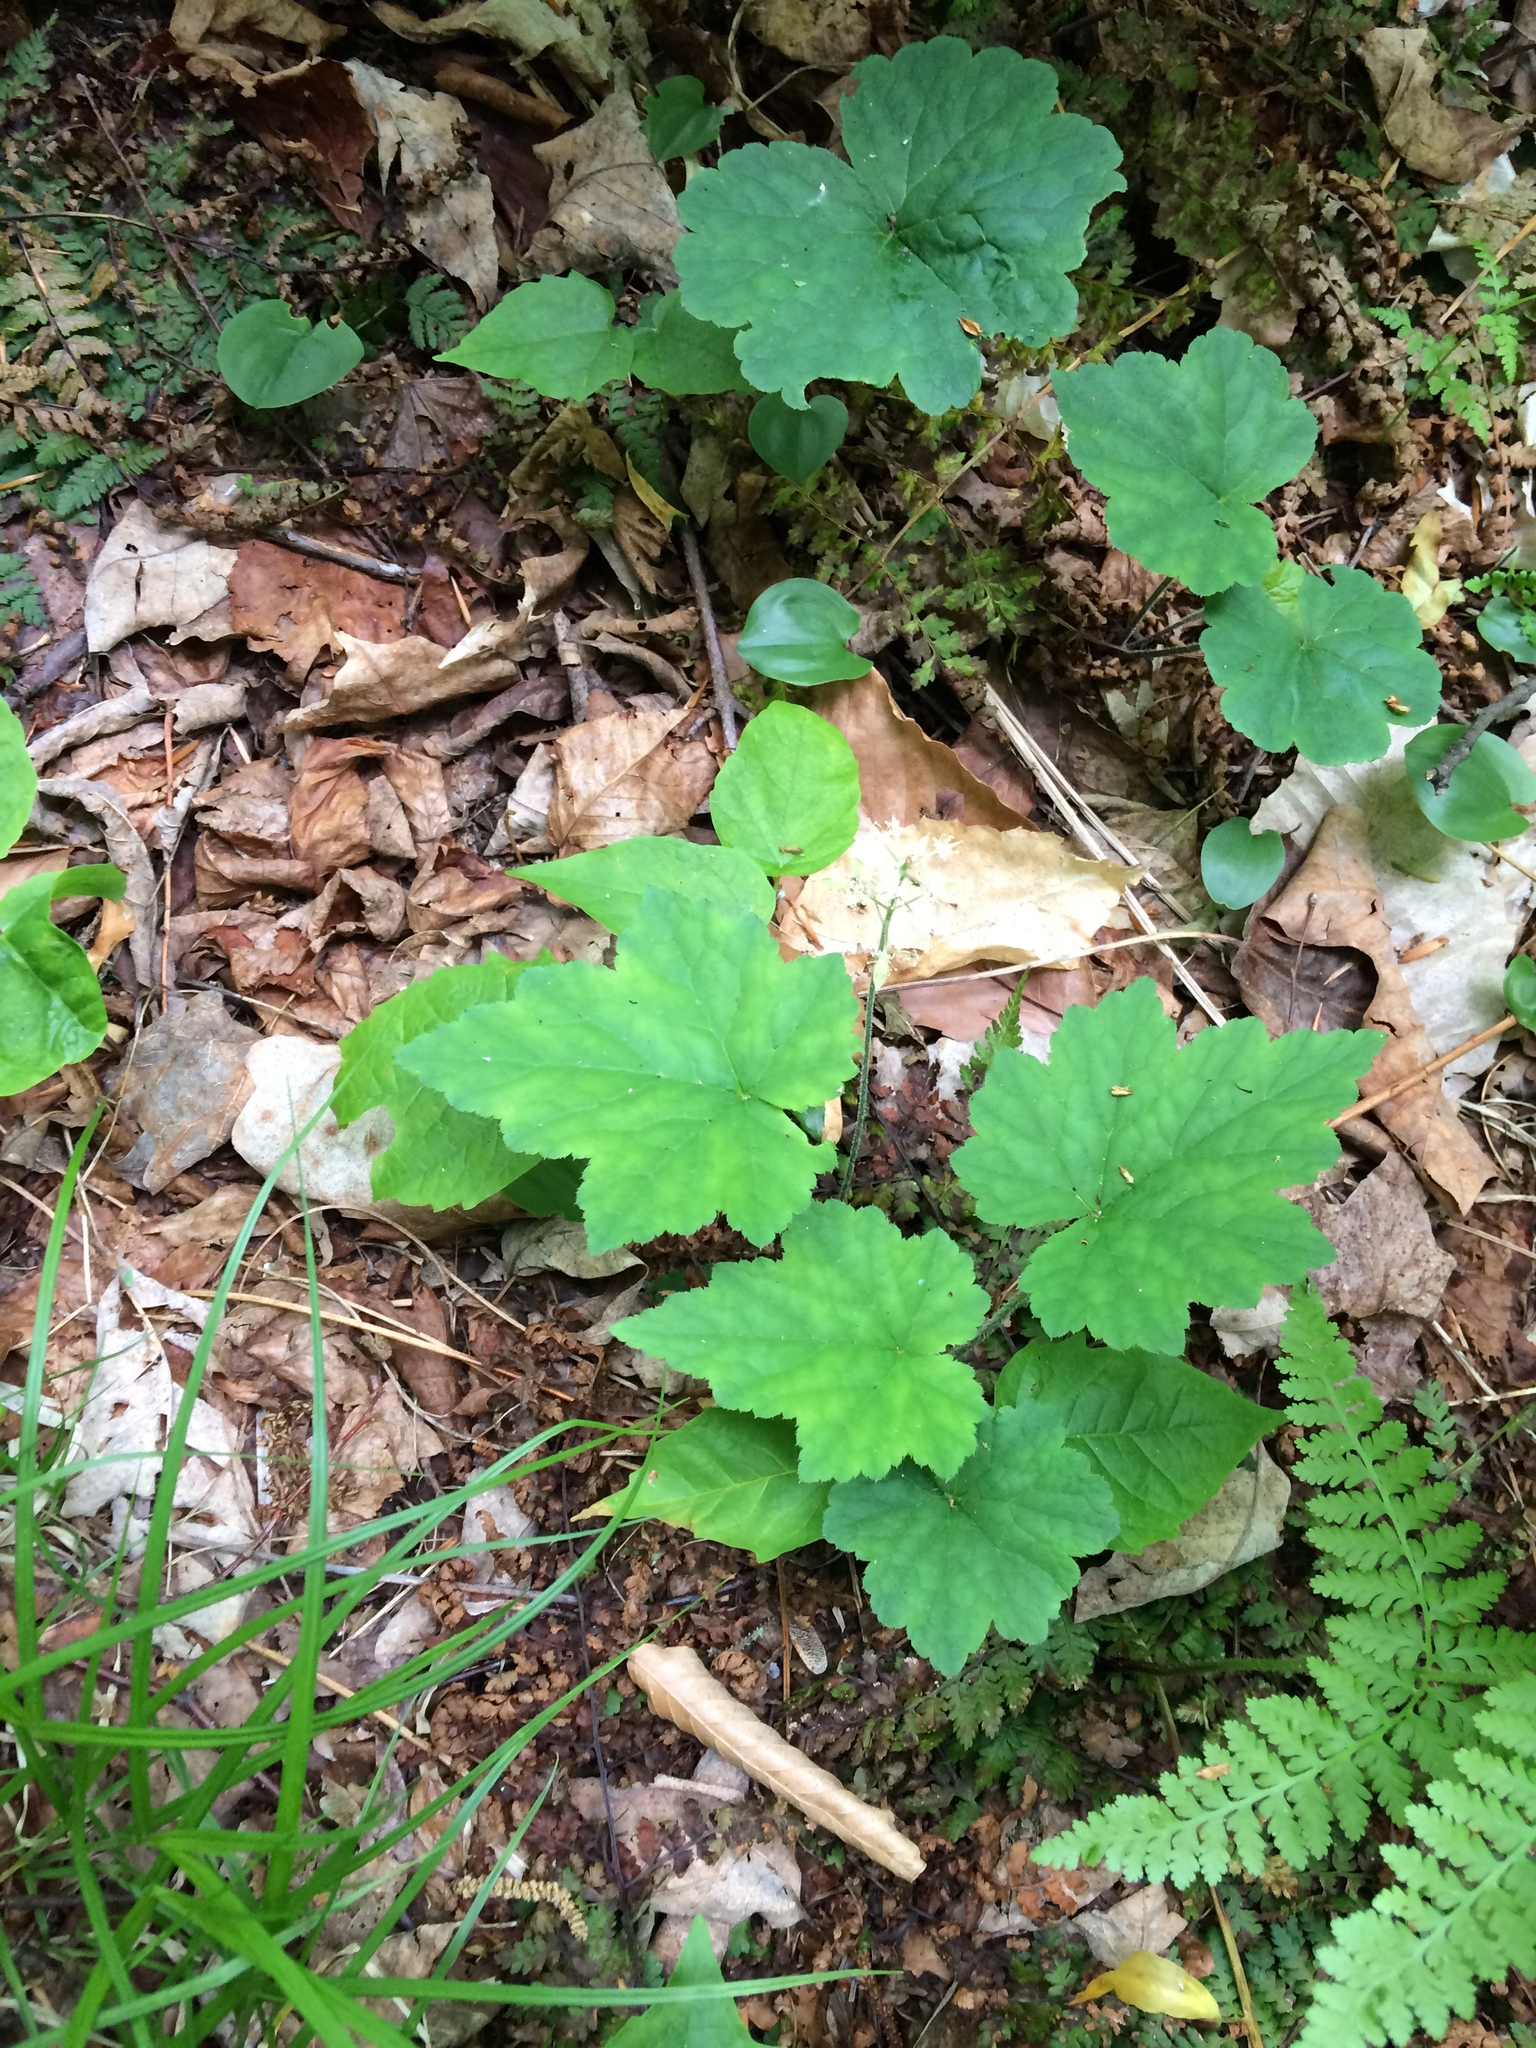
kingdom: Plantae
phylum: Tracheophyta
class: Magnoliopsida
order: Saxifragales
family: Saxifragaceae
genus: Tiarella
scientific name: Tiarella stolonifera
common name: Stoloniferous foamflower
